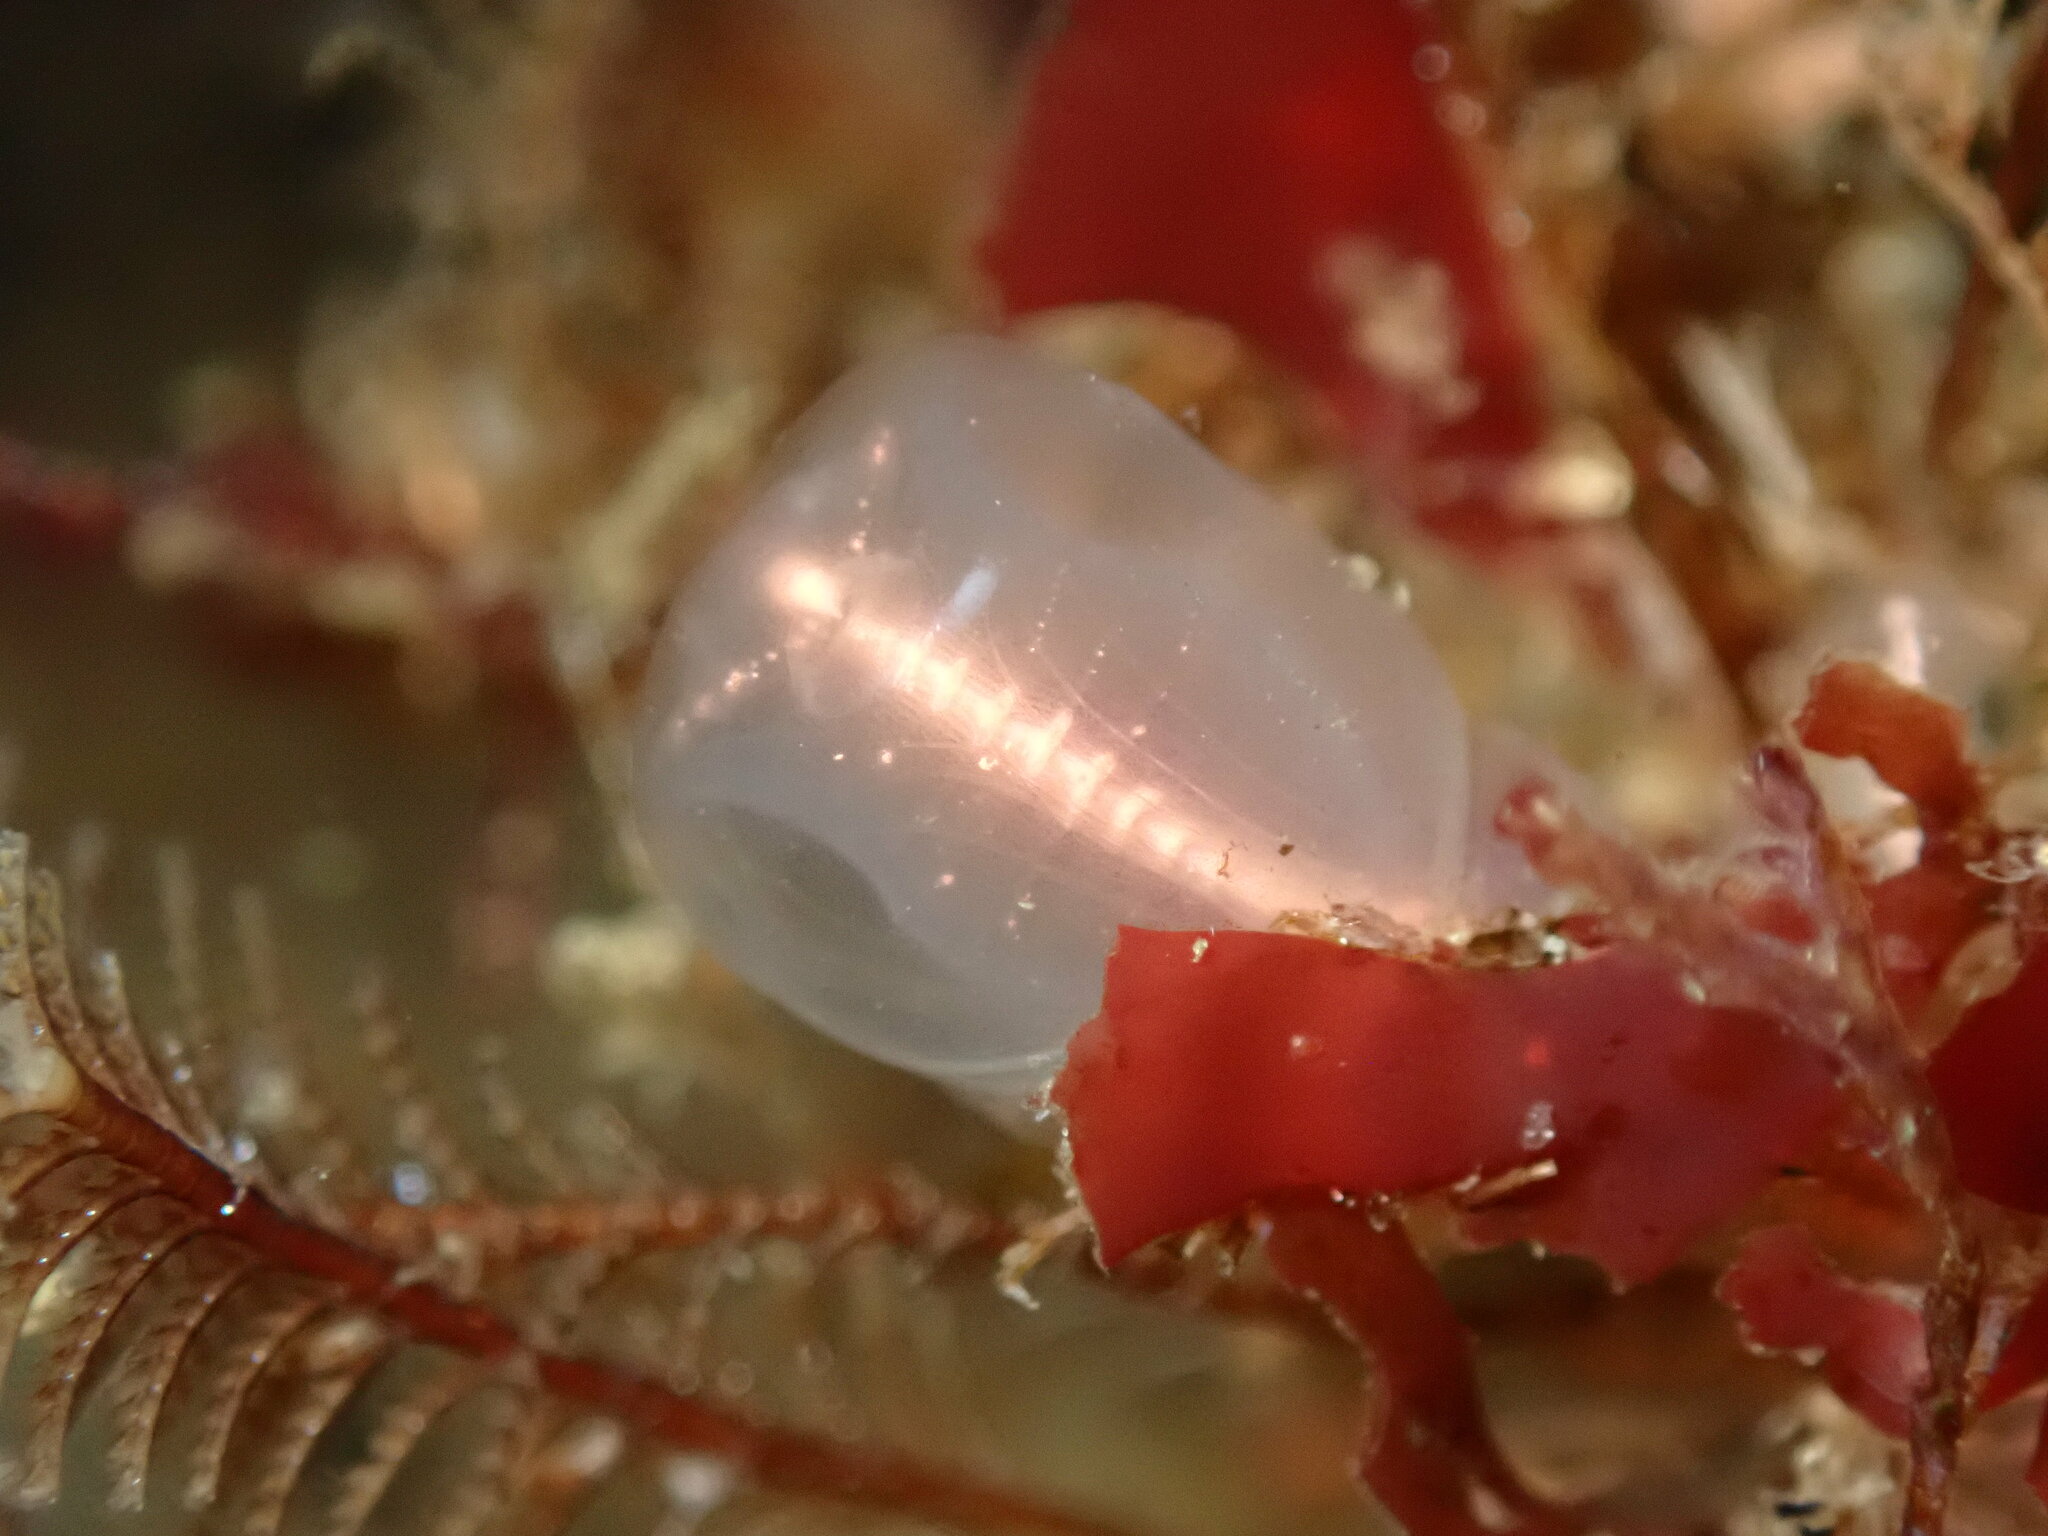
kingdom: Animalia
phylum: Chordata
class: Ascidiacea
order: Aplousobranchia
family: Clavelinidae
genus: Clavelina
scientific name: Clavelina huntsmani
